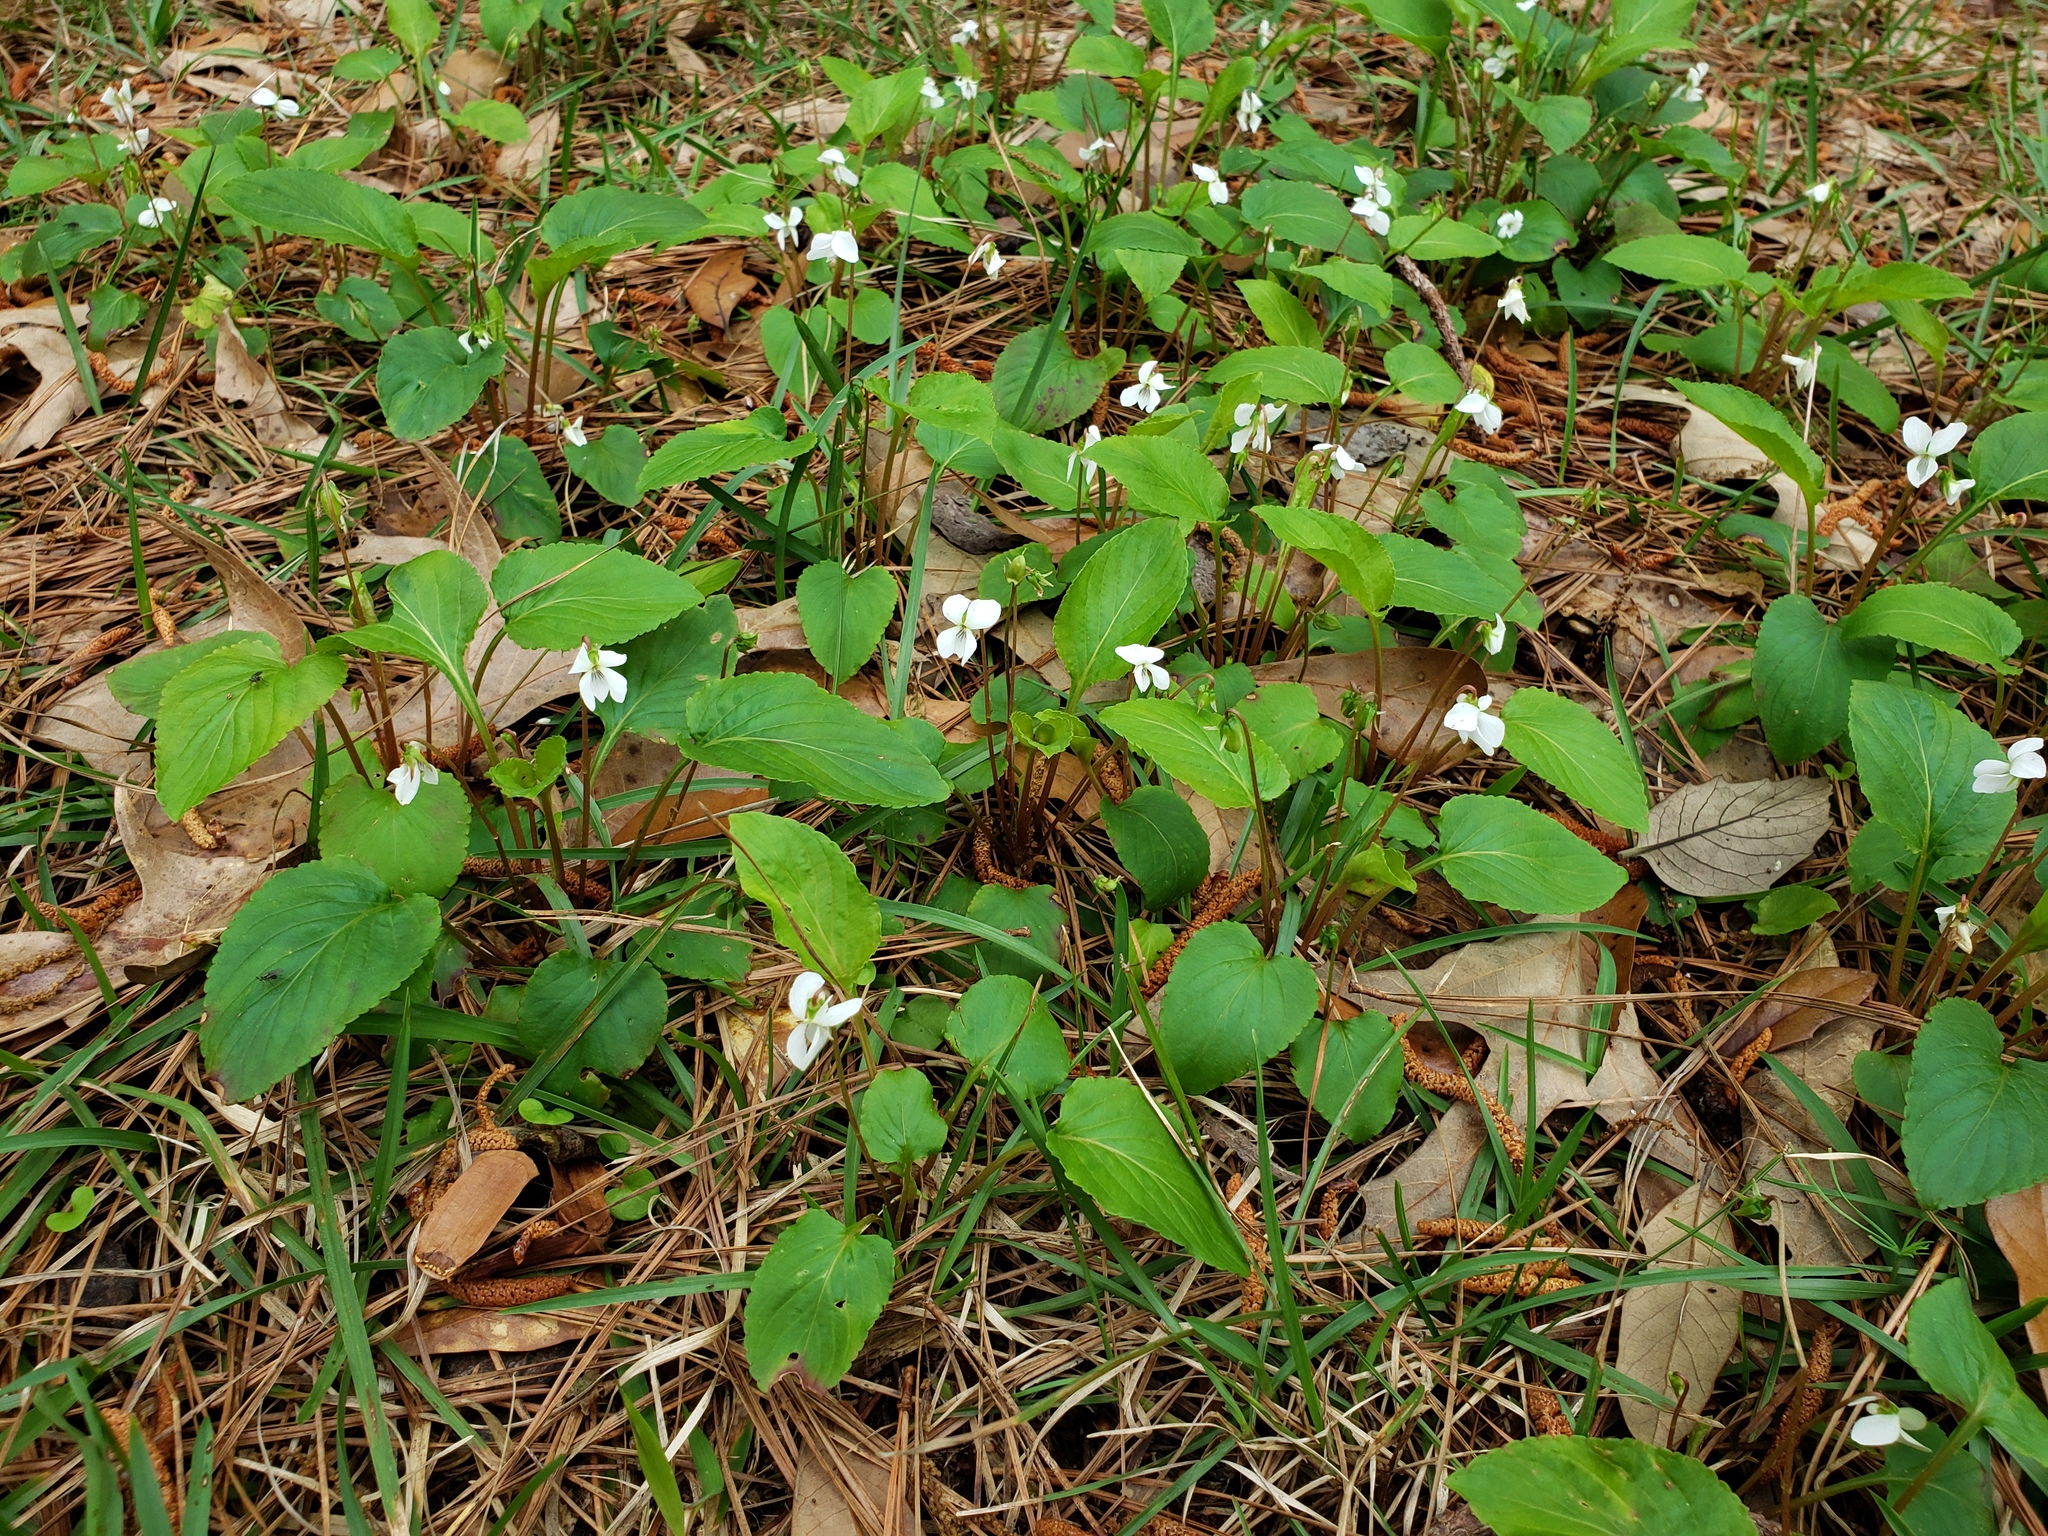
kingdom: Plantae
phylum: Tracheophyta
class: Magnoliopsida
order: Malpighiales
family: Violaceae
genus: Viola
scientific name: Viola primulifolia
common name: Primrose-leaf violet
